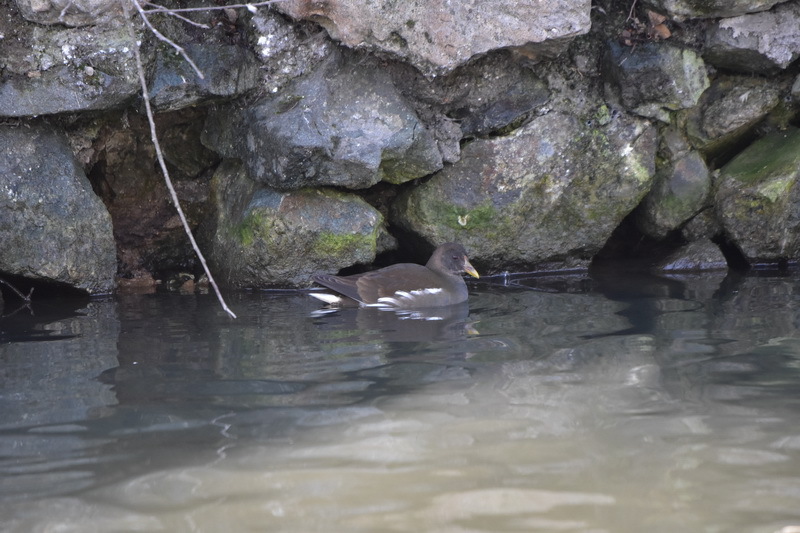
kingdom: Animalia
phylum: Chordata
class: Aves
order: Gruiformes
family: Rallidae
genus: Gallinula
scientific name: Gallinula chloropus
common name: Common moorhen
